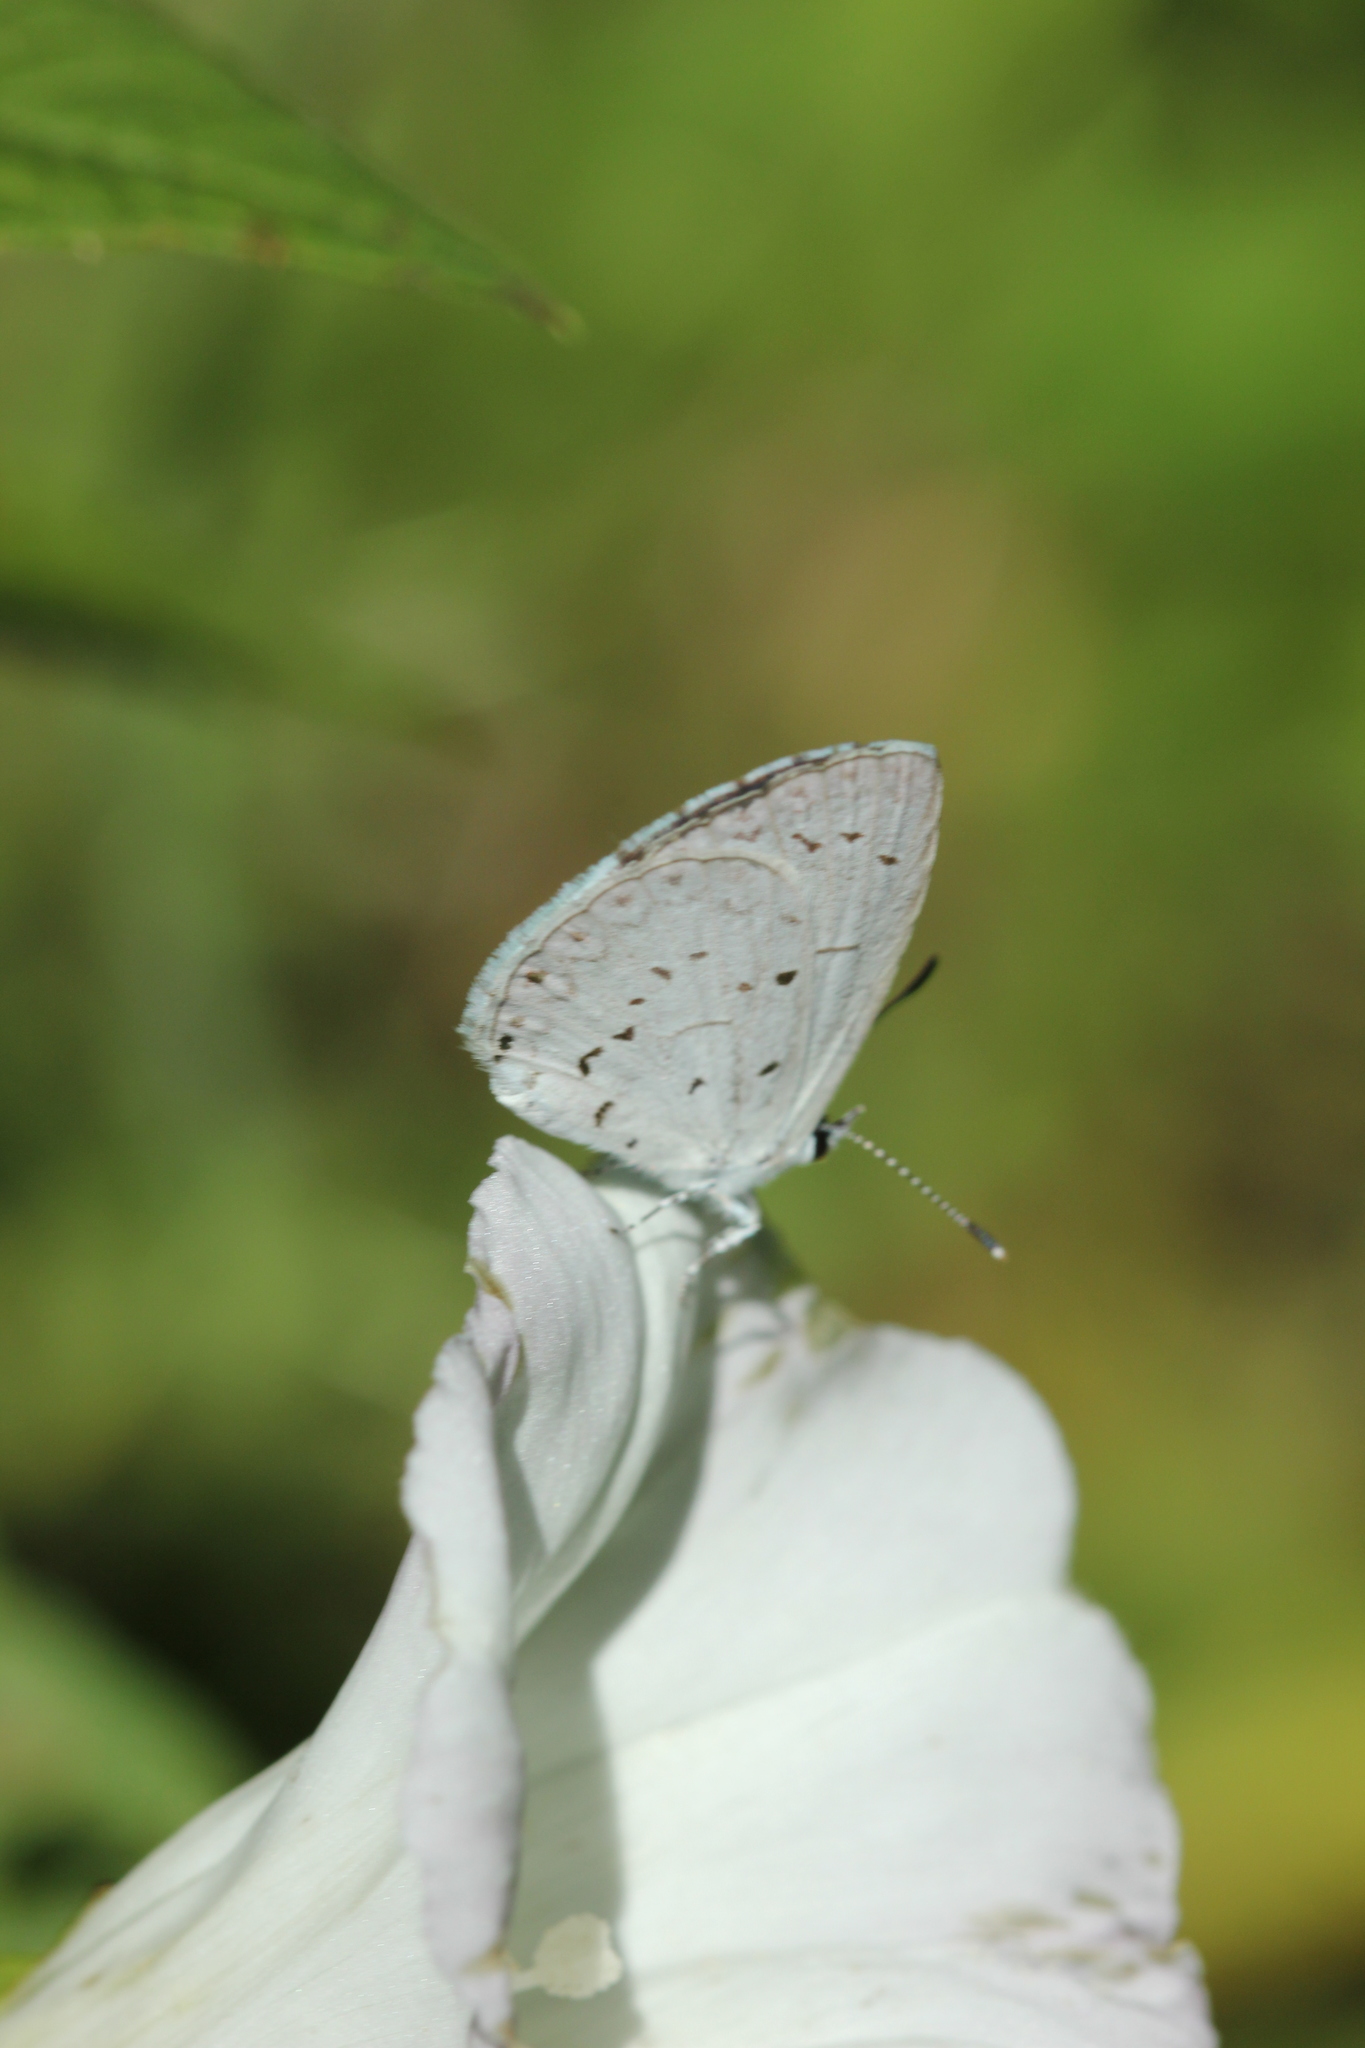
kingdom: Animalia
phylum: Arthropoda
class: Insecta
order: Lepidoptera
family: Lycaenidae
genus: Cyaniris
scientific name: Cyaniris neglecta
